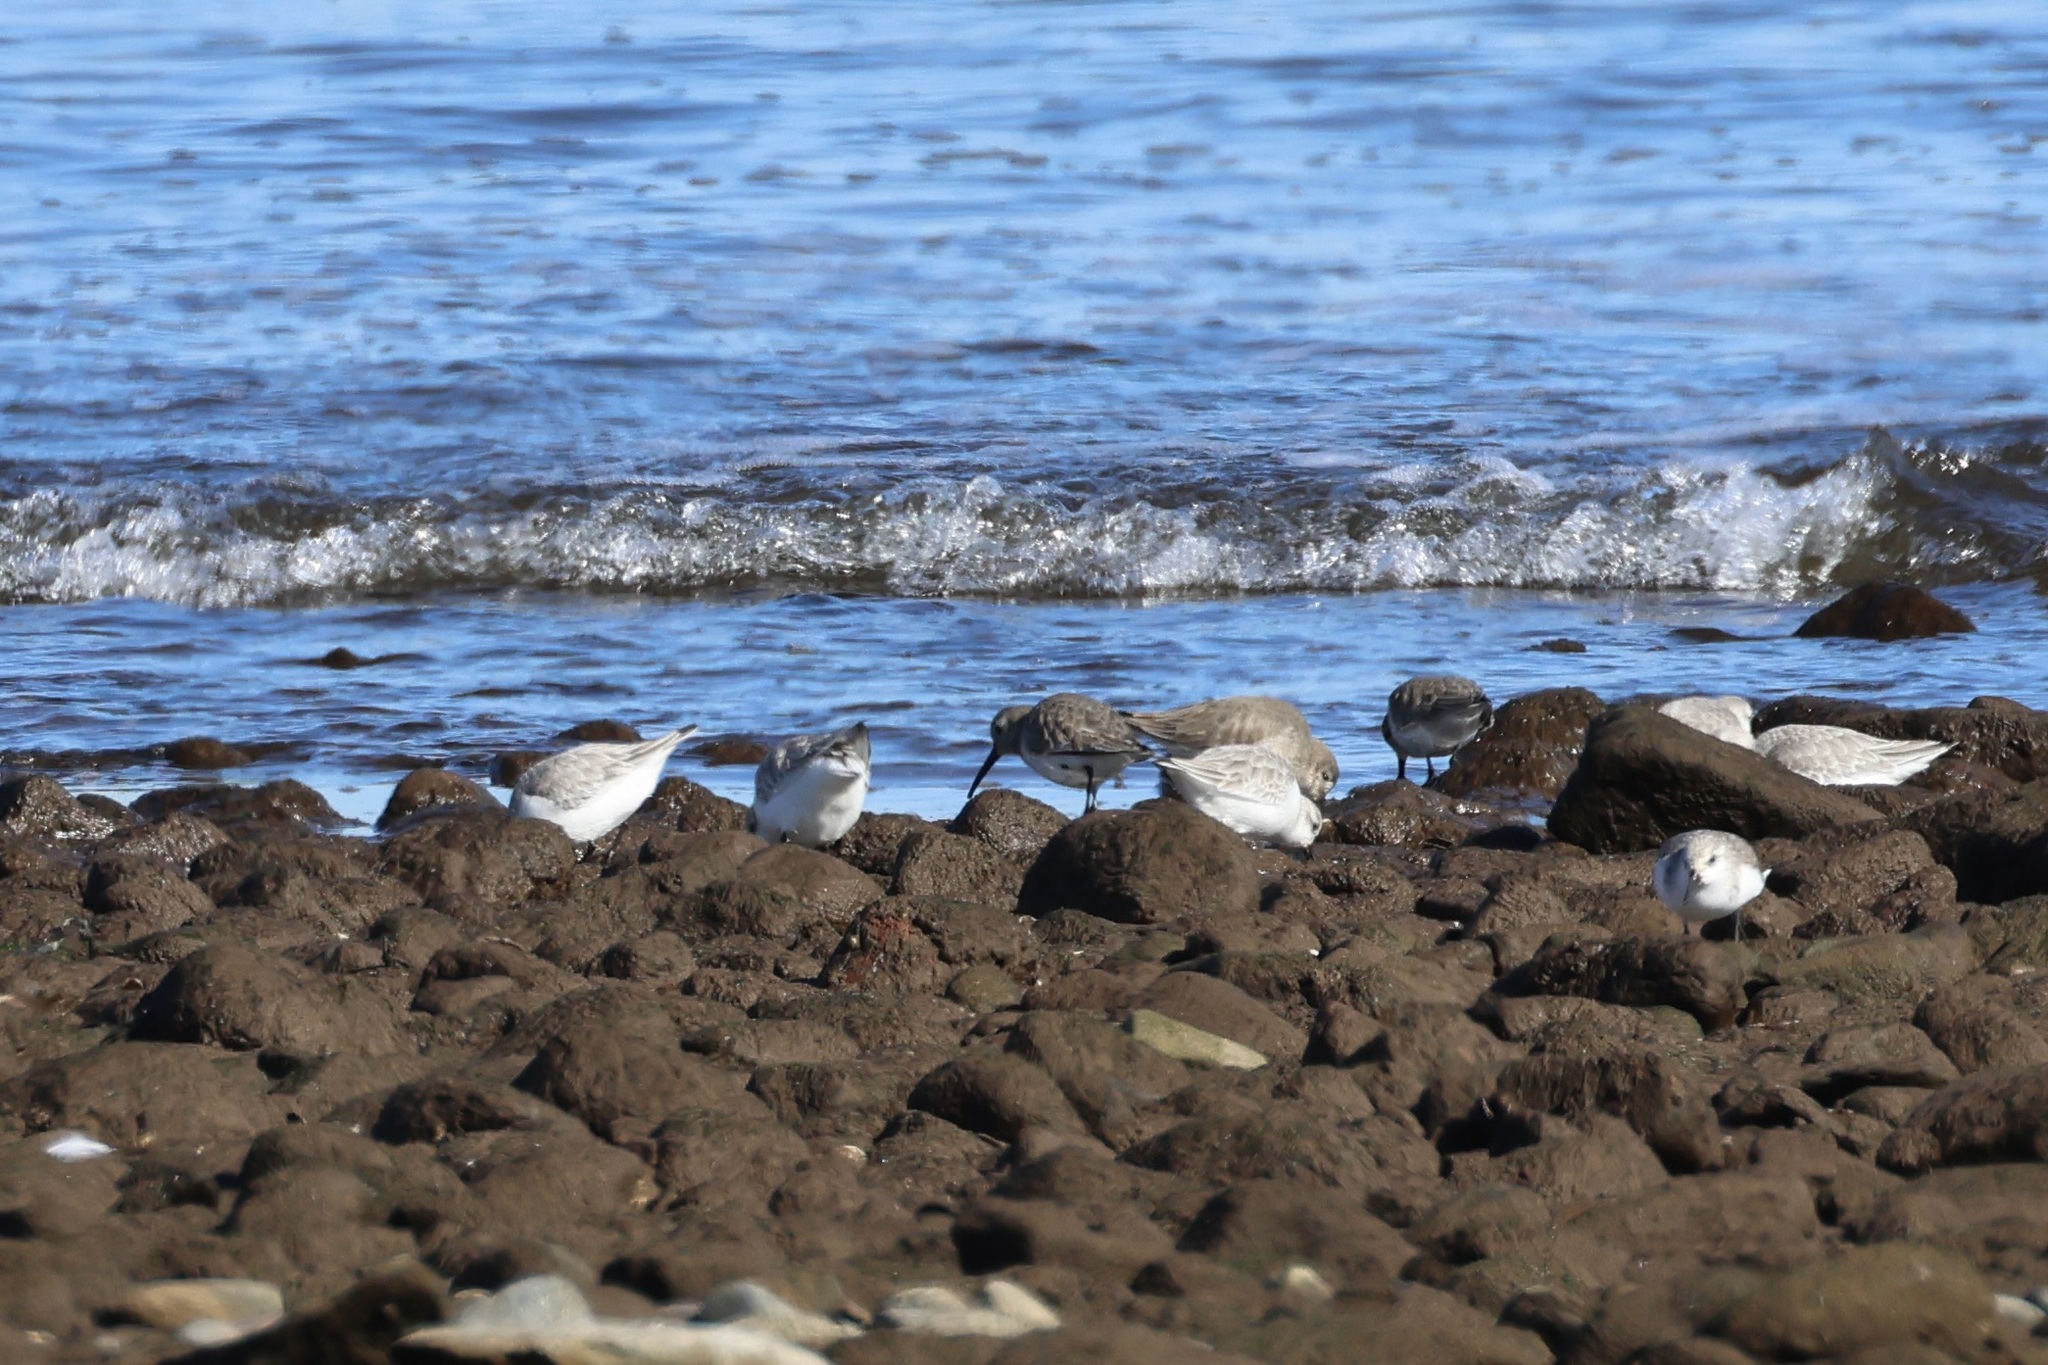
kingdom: Animalia
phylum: Chordata
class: Aves
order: Charadriiformes
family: Scolopacidae
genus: Calidris
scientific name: Calidris alpina
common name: Dunlin
